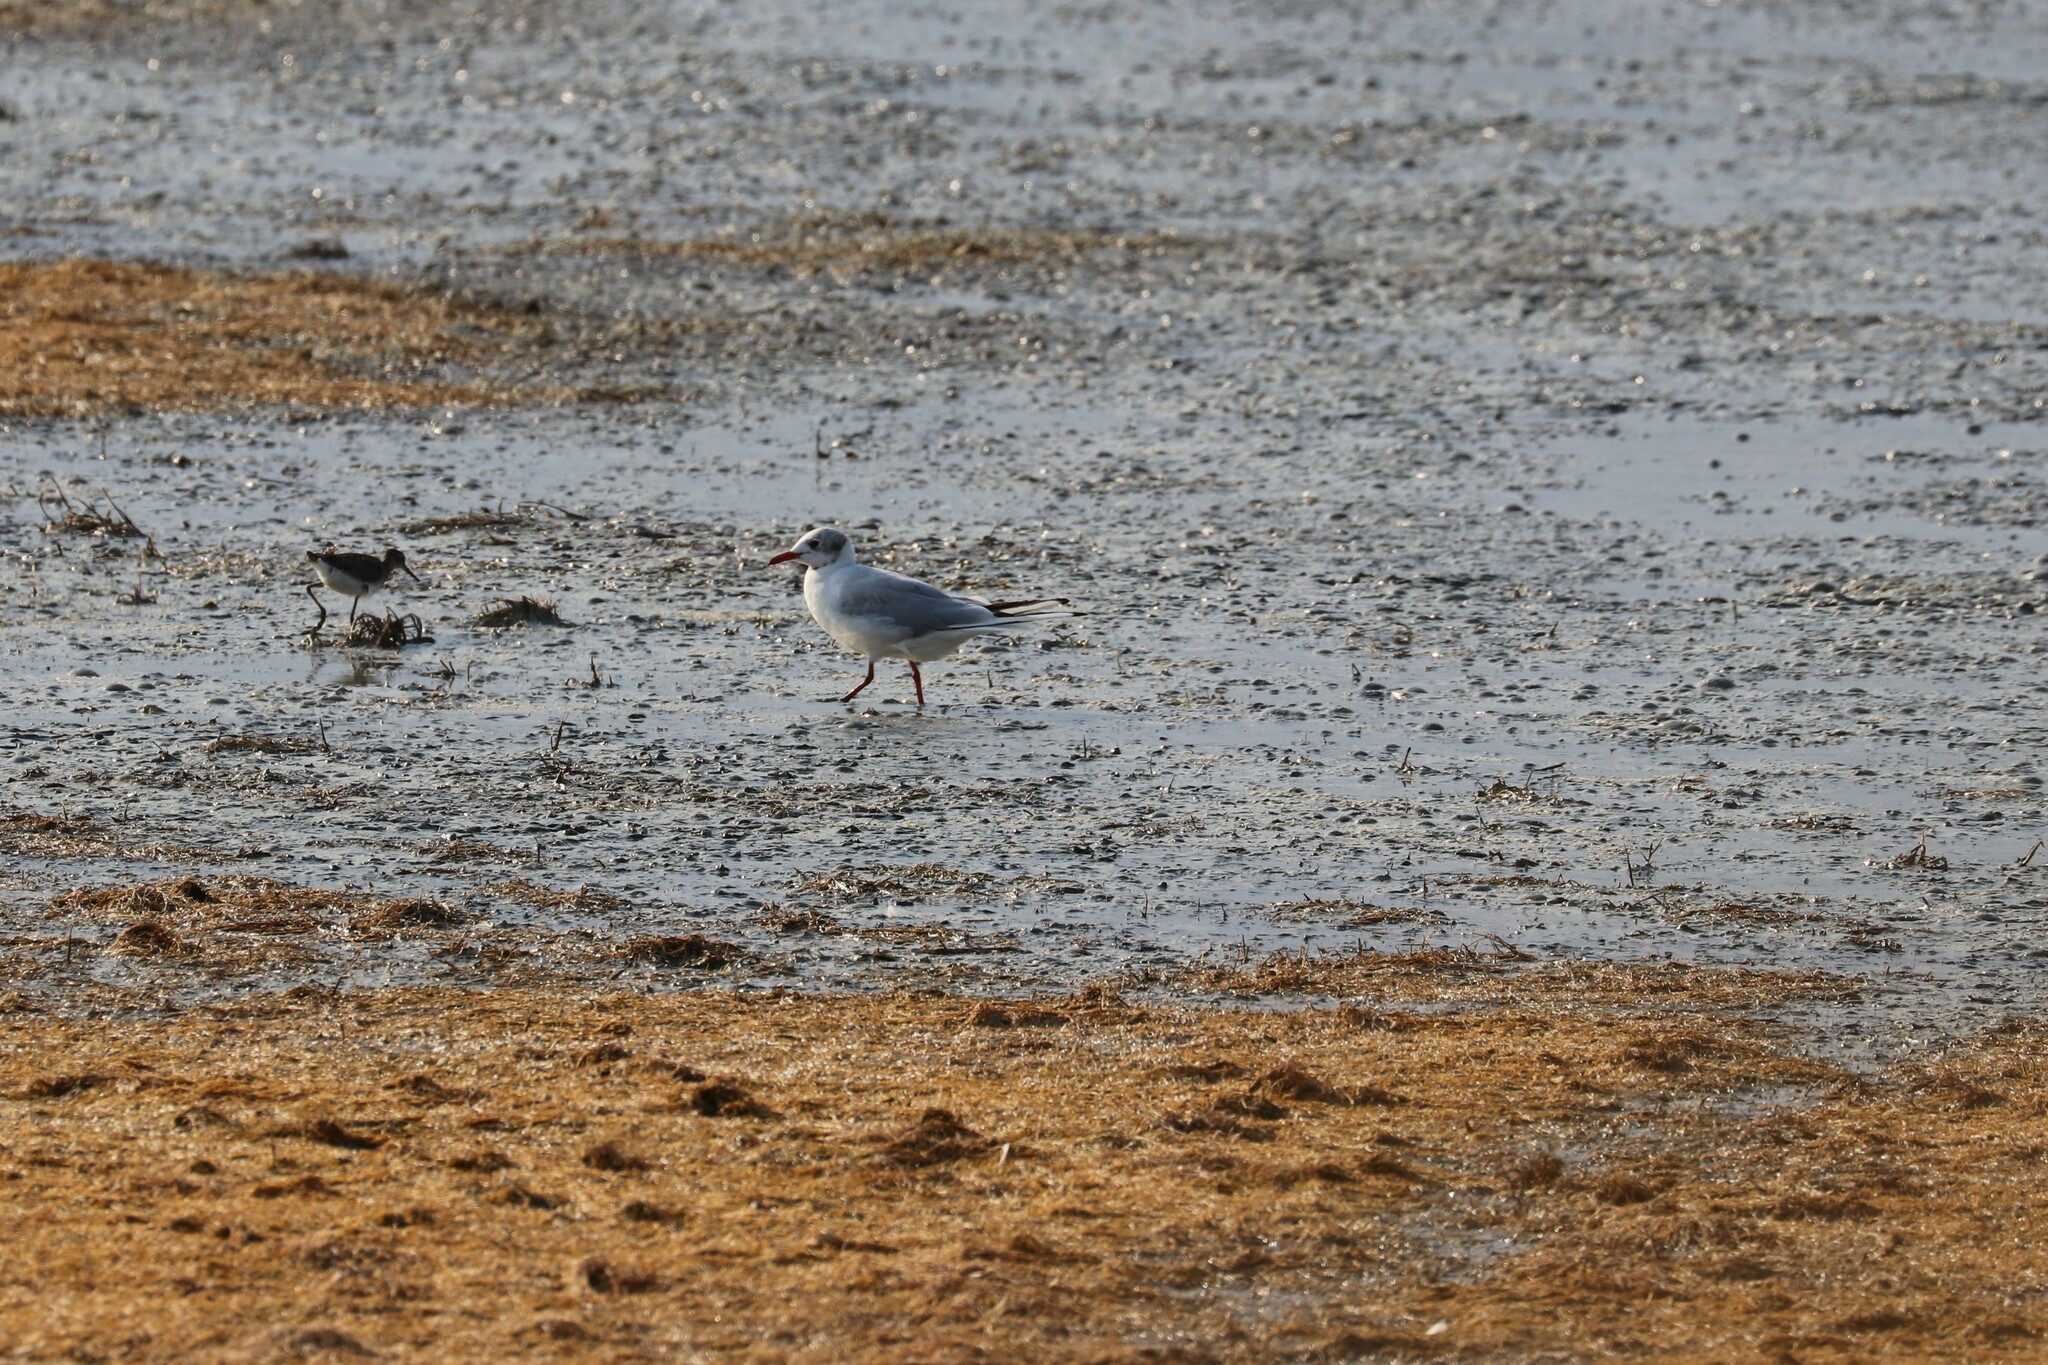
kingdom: Animalia
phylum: Chordata
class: Aves
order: Charadriiformes
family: Laridae
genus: Chroicocephalus
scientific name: Chroicocephalus ridibundus
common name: Black-headed gull
